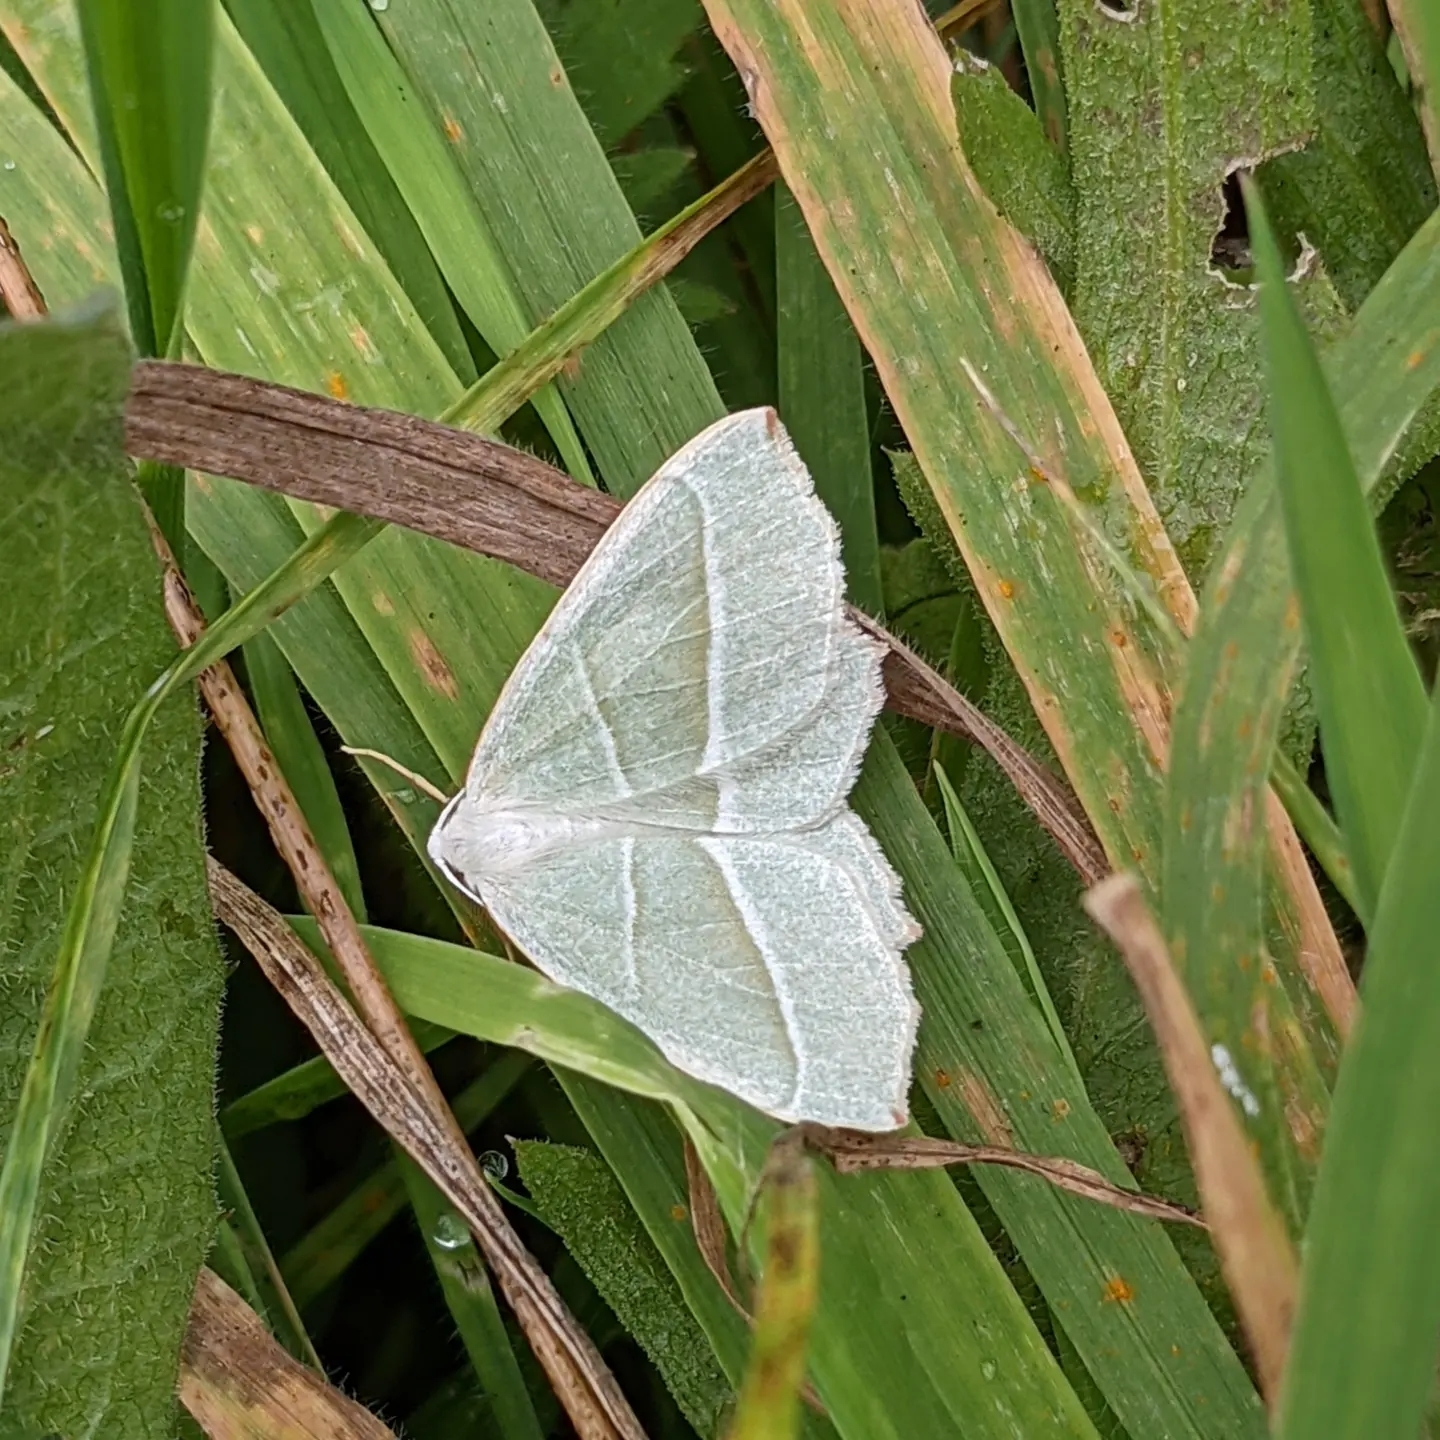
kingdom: Animalia
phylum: Arthropoda
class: Insecta
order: Lepidoptera
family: Geometridae
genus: Campaea
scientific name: Campaea margaritaria
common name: Light emerald
